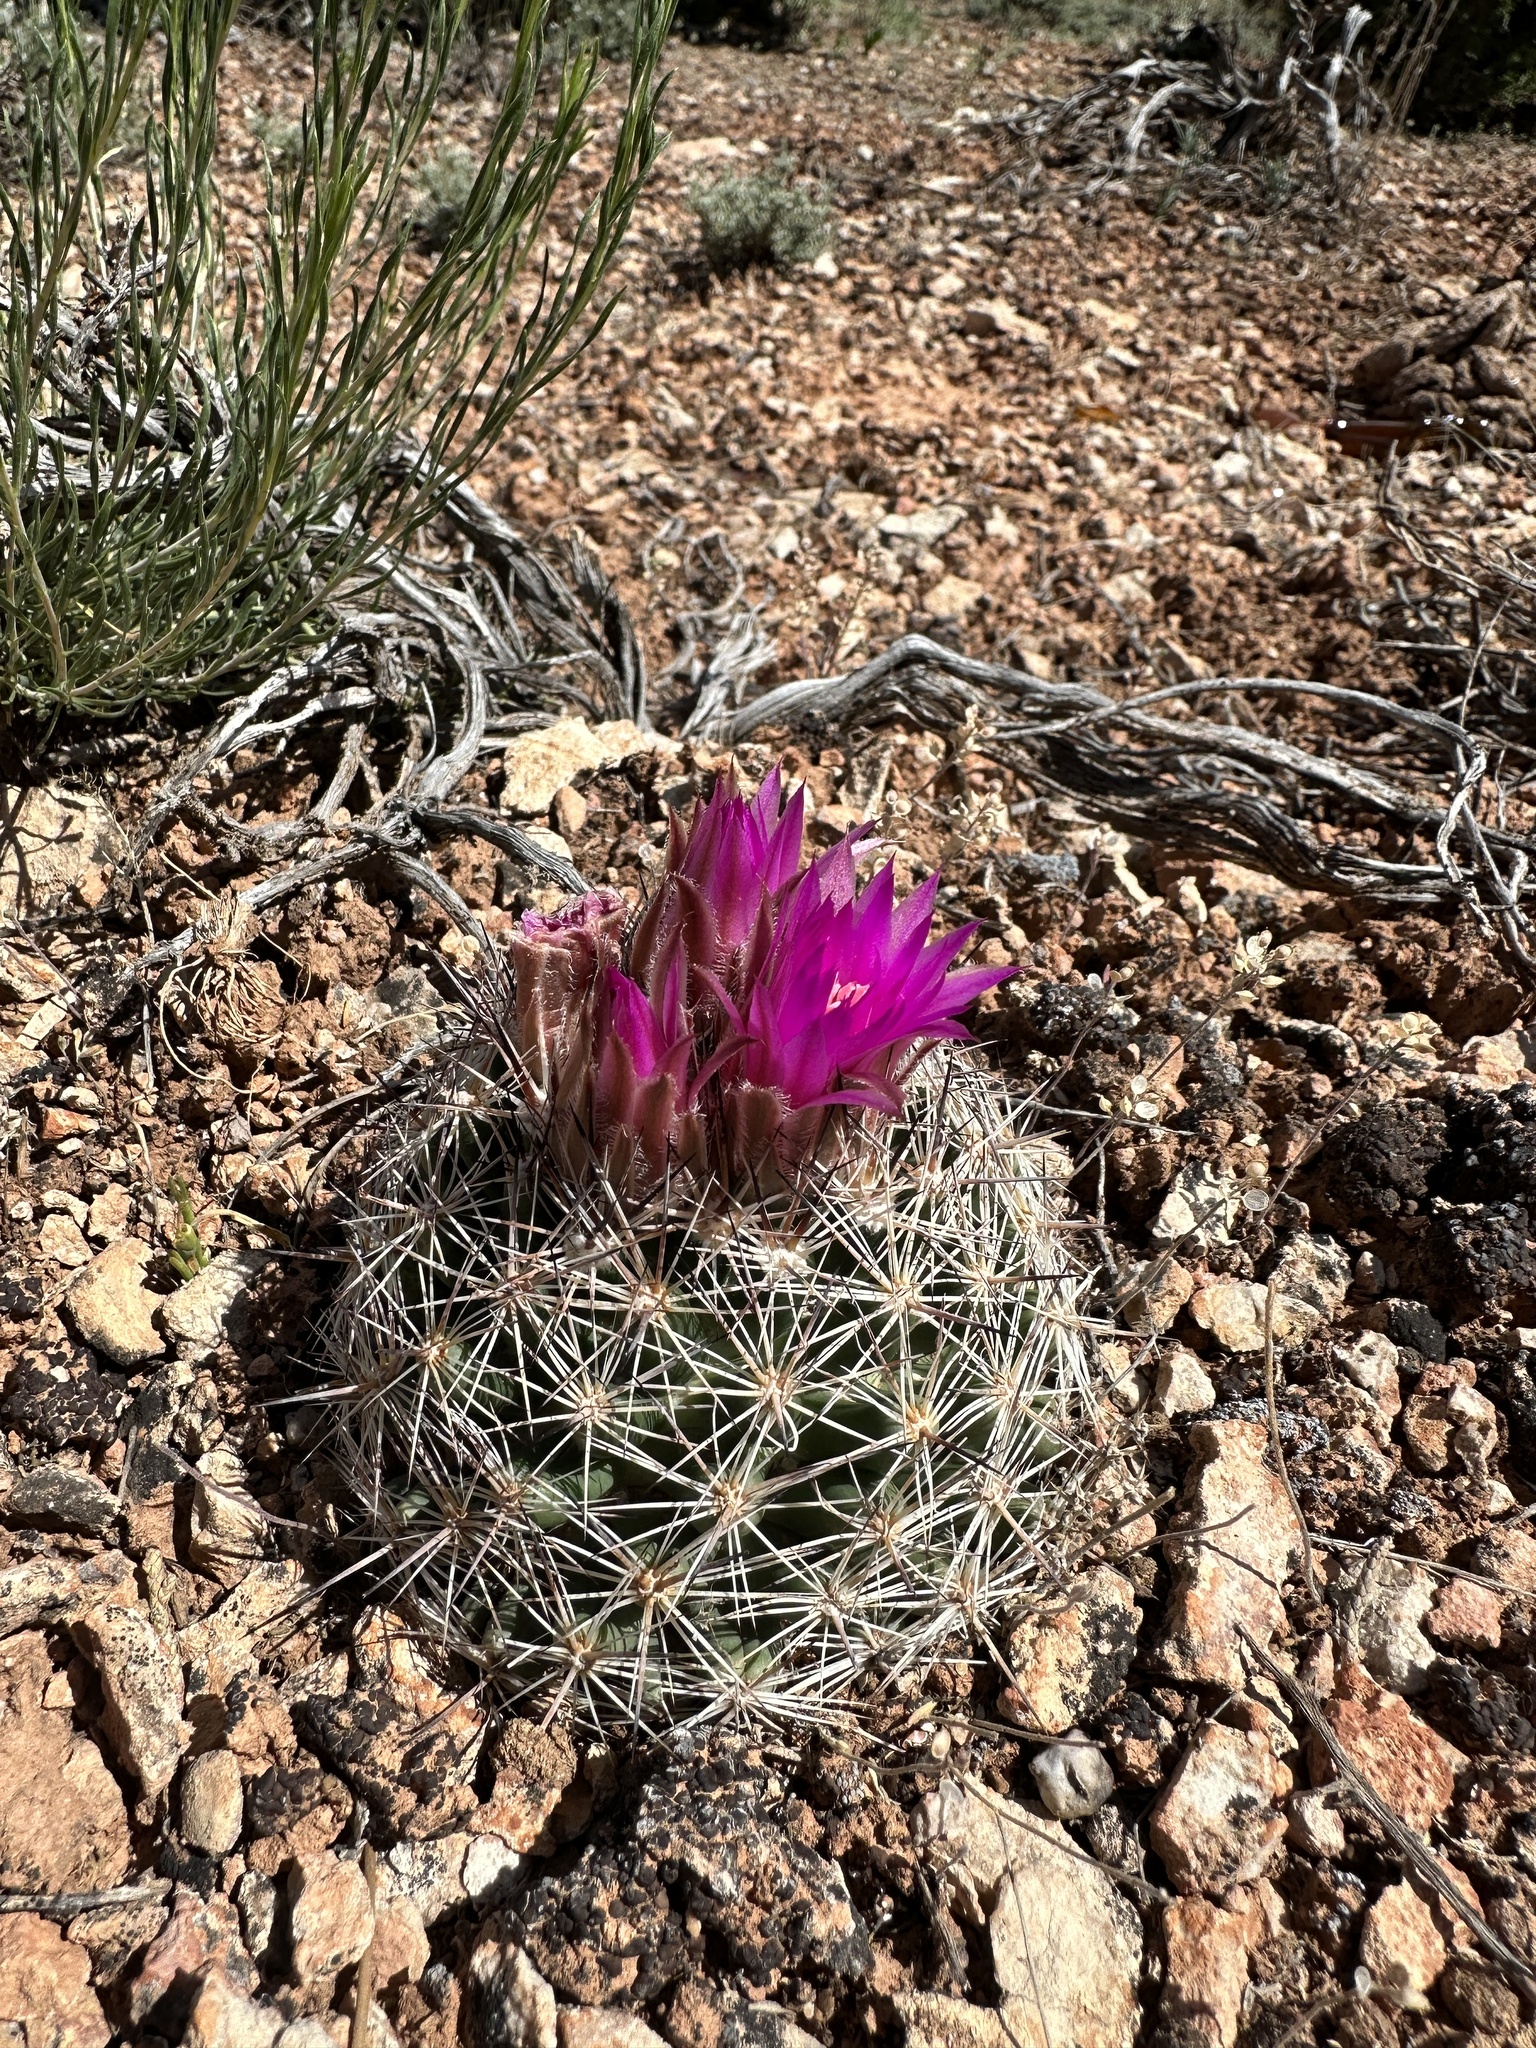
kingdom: Plantae
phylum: Tracheophyta
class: Magnoliopsida
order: Caryophyllales
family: Cactaceae
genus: Pelecyphora
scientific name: Pelecyphora vivipara
